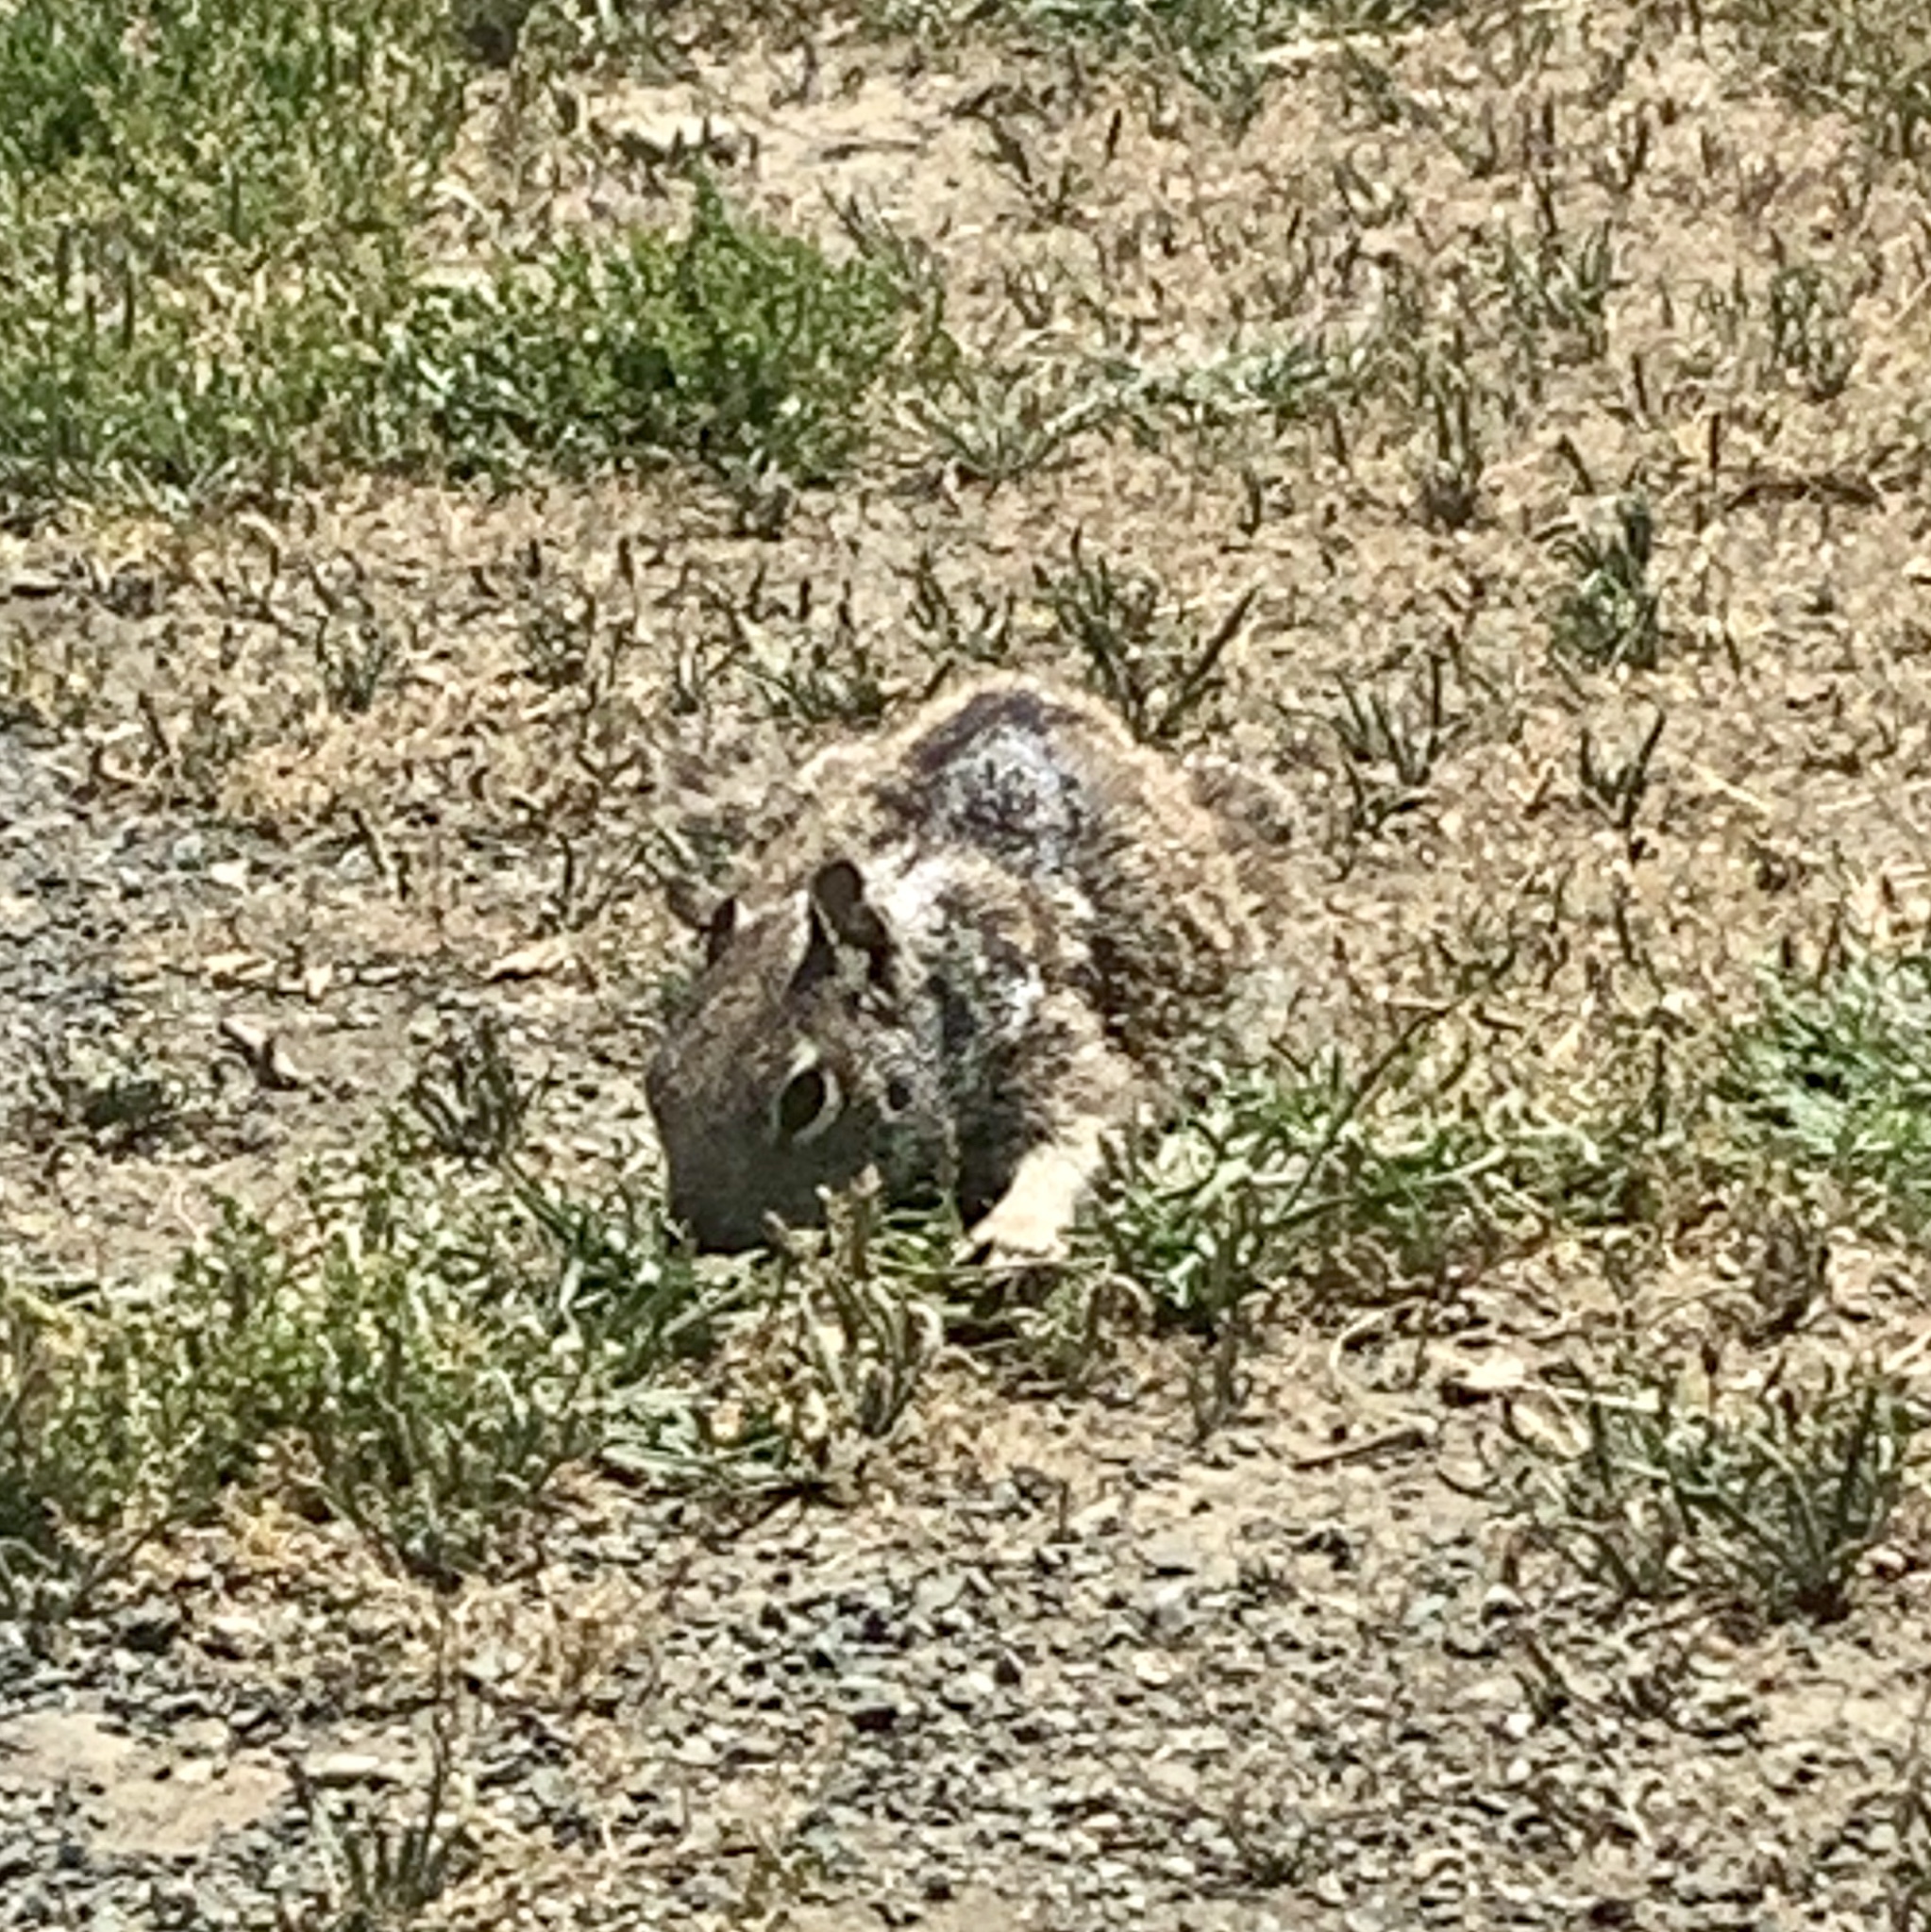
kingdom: Animalia
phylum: Chordata
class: Mammalia
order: Rodentia
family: Sciuridae
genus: Otospermophilus
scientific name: Otospermophilus beecheyi
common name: California ground squirrel
